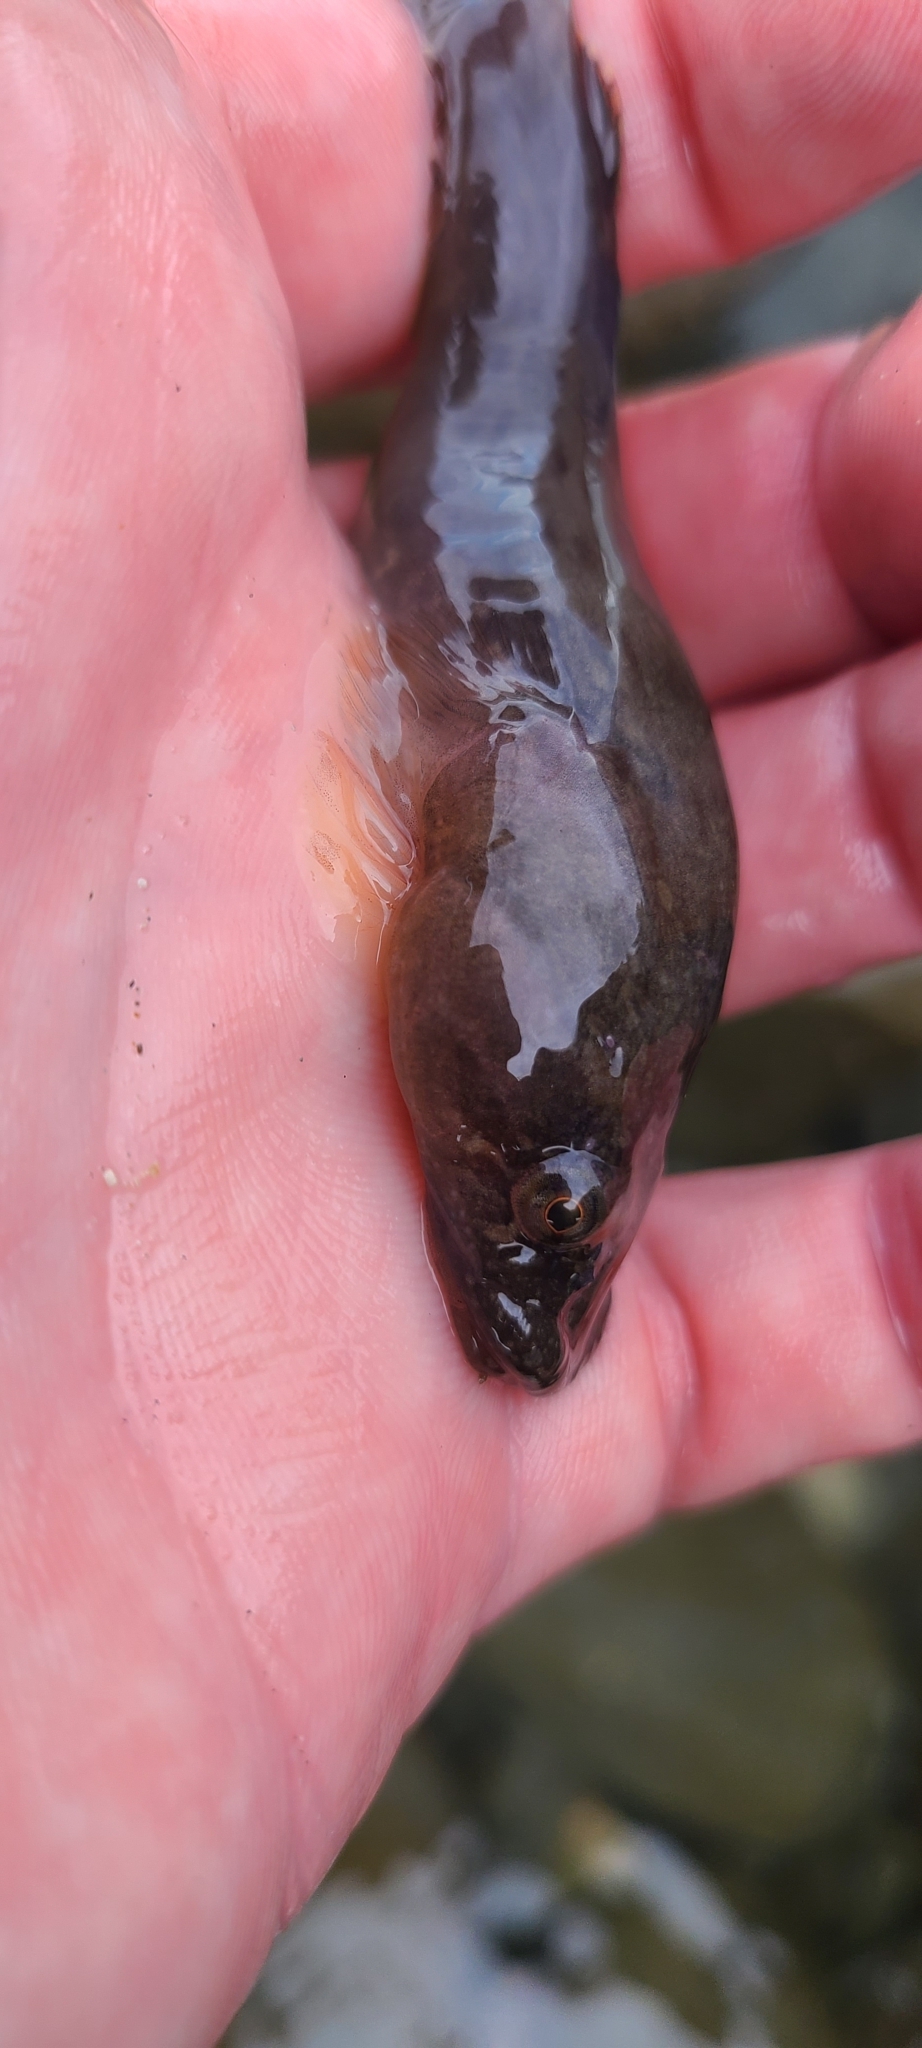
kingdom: Animalia
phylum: Chordata
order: Gobiesociformes
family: Gobiesocidae
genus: Trachelochismus
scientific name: Trachelochismus pinnulatus
